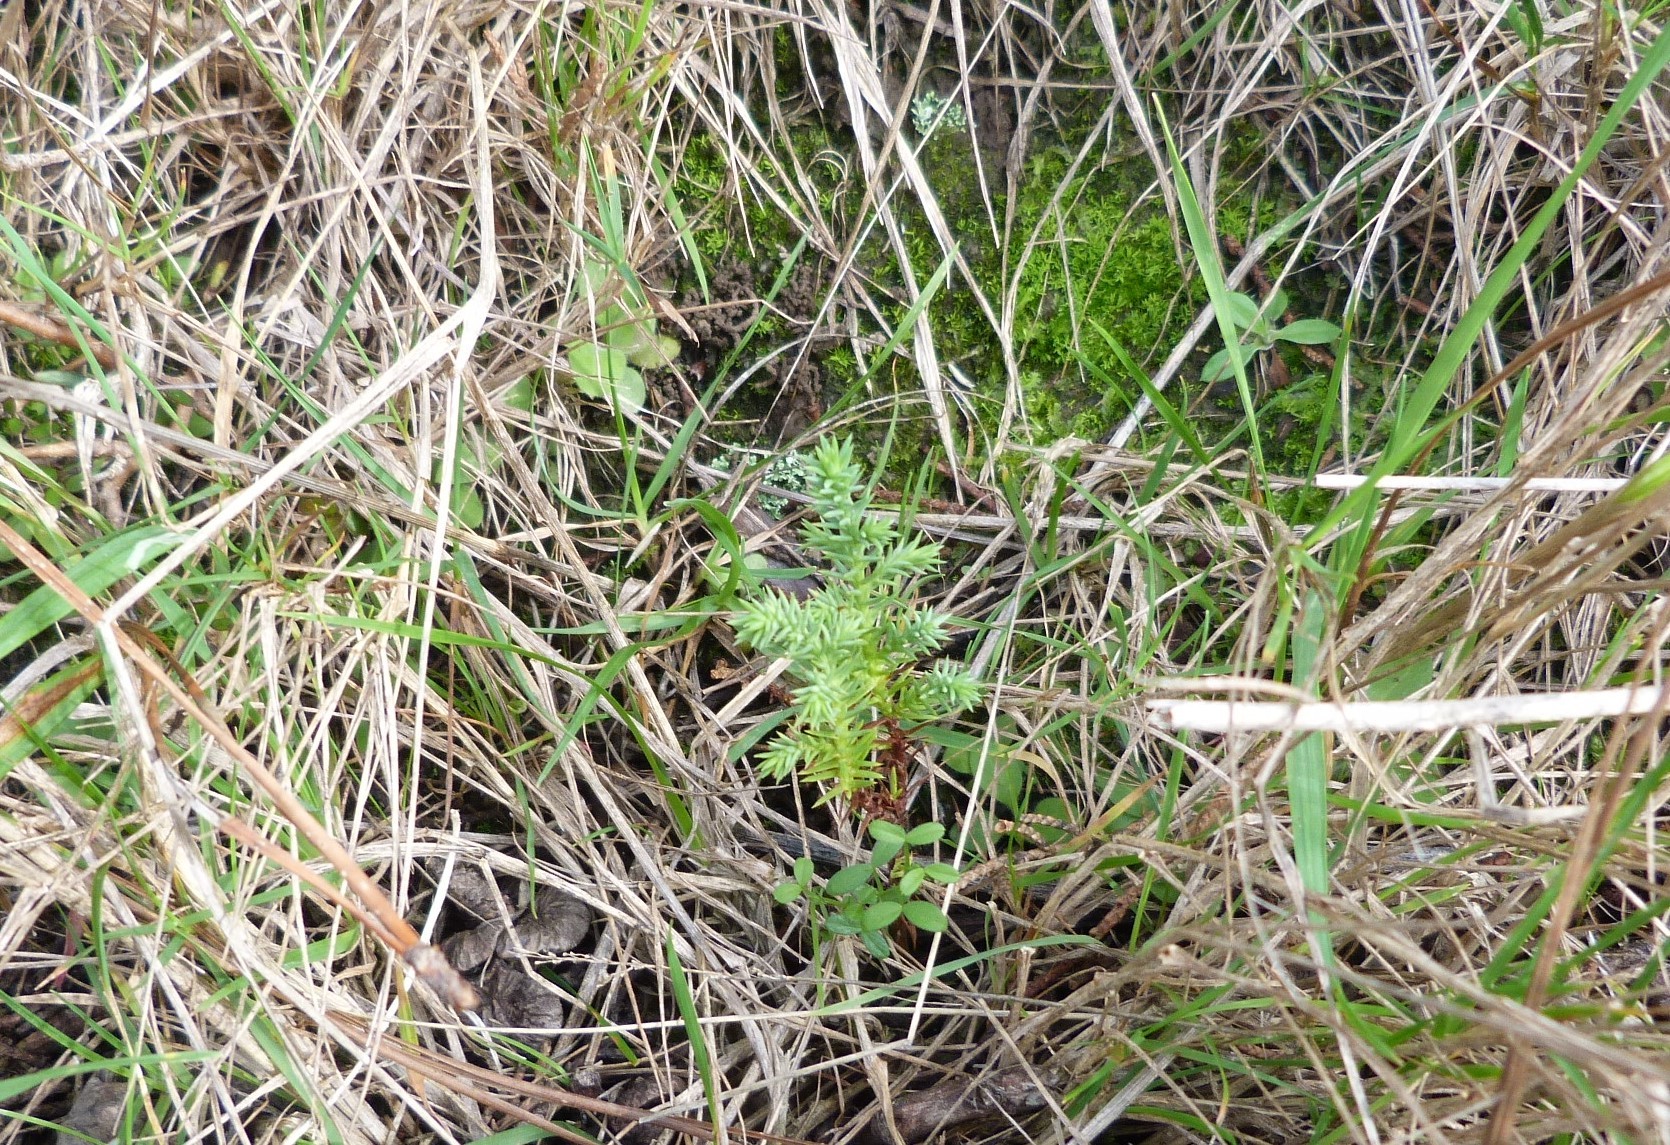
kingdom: Plantae
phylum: Tracheophyta
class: Pinopsida
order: Pinales
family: Cupressaceae
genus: Cupressus
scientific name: Cupressus macrocarpa
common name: Monterey cypress
